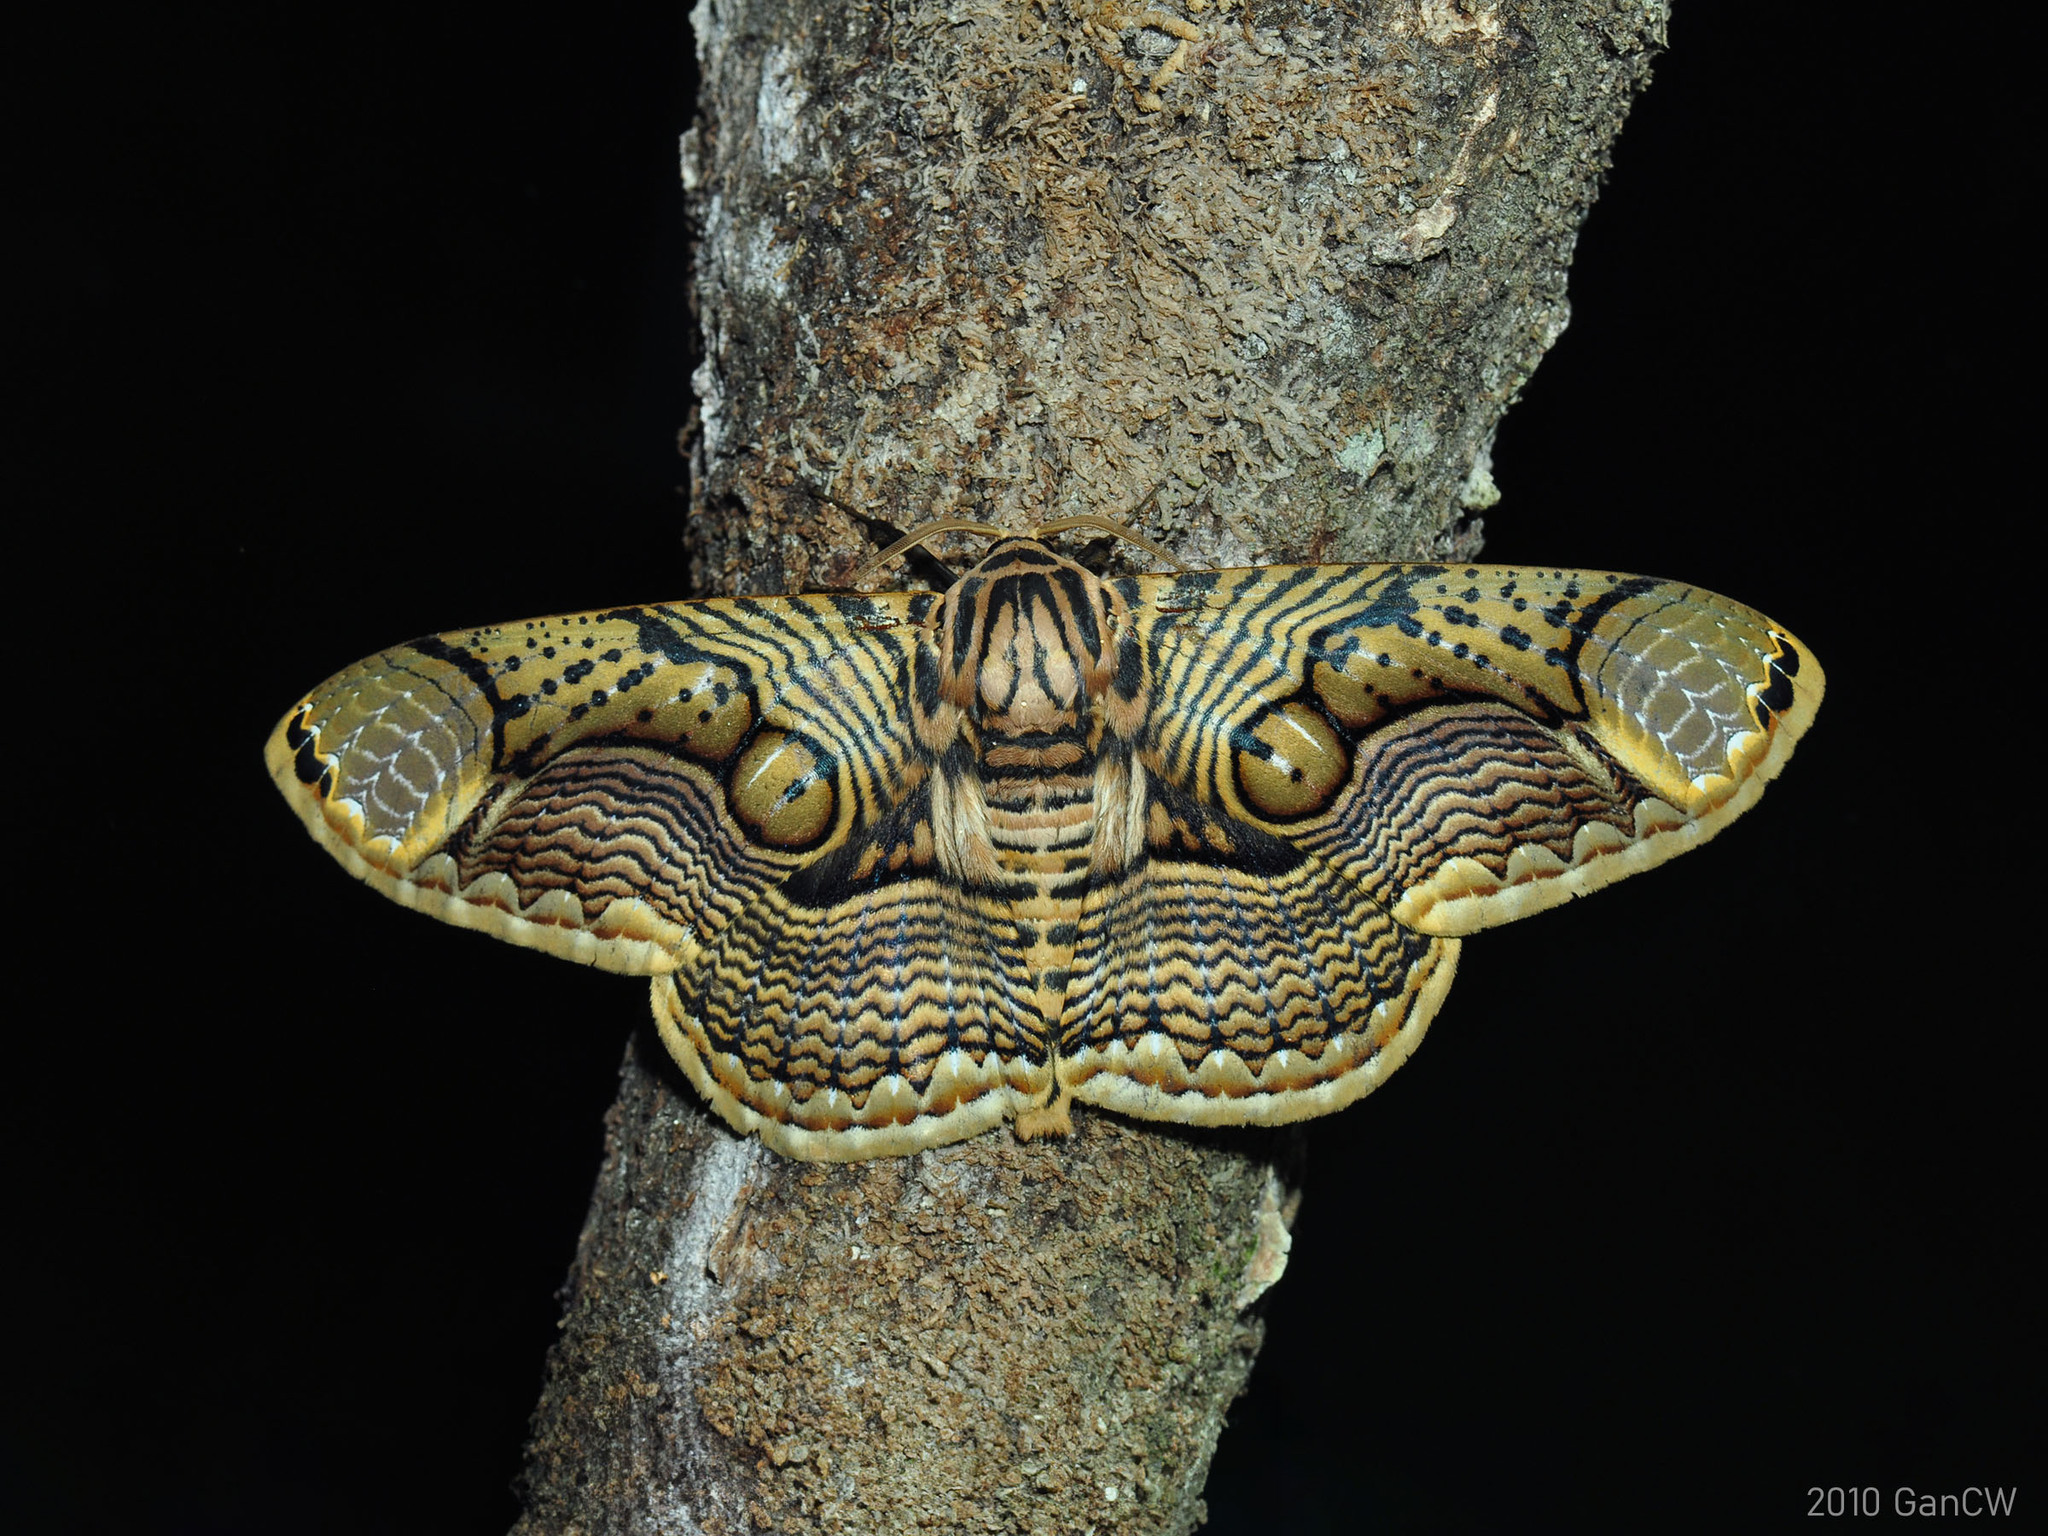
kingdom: Animalia
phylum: Arthropoda
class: Insecta
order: Lepidoptera
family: Brahmaeidae
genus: Brahmaea
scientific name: Brahmaea hearseyi
